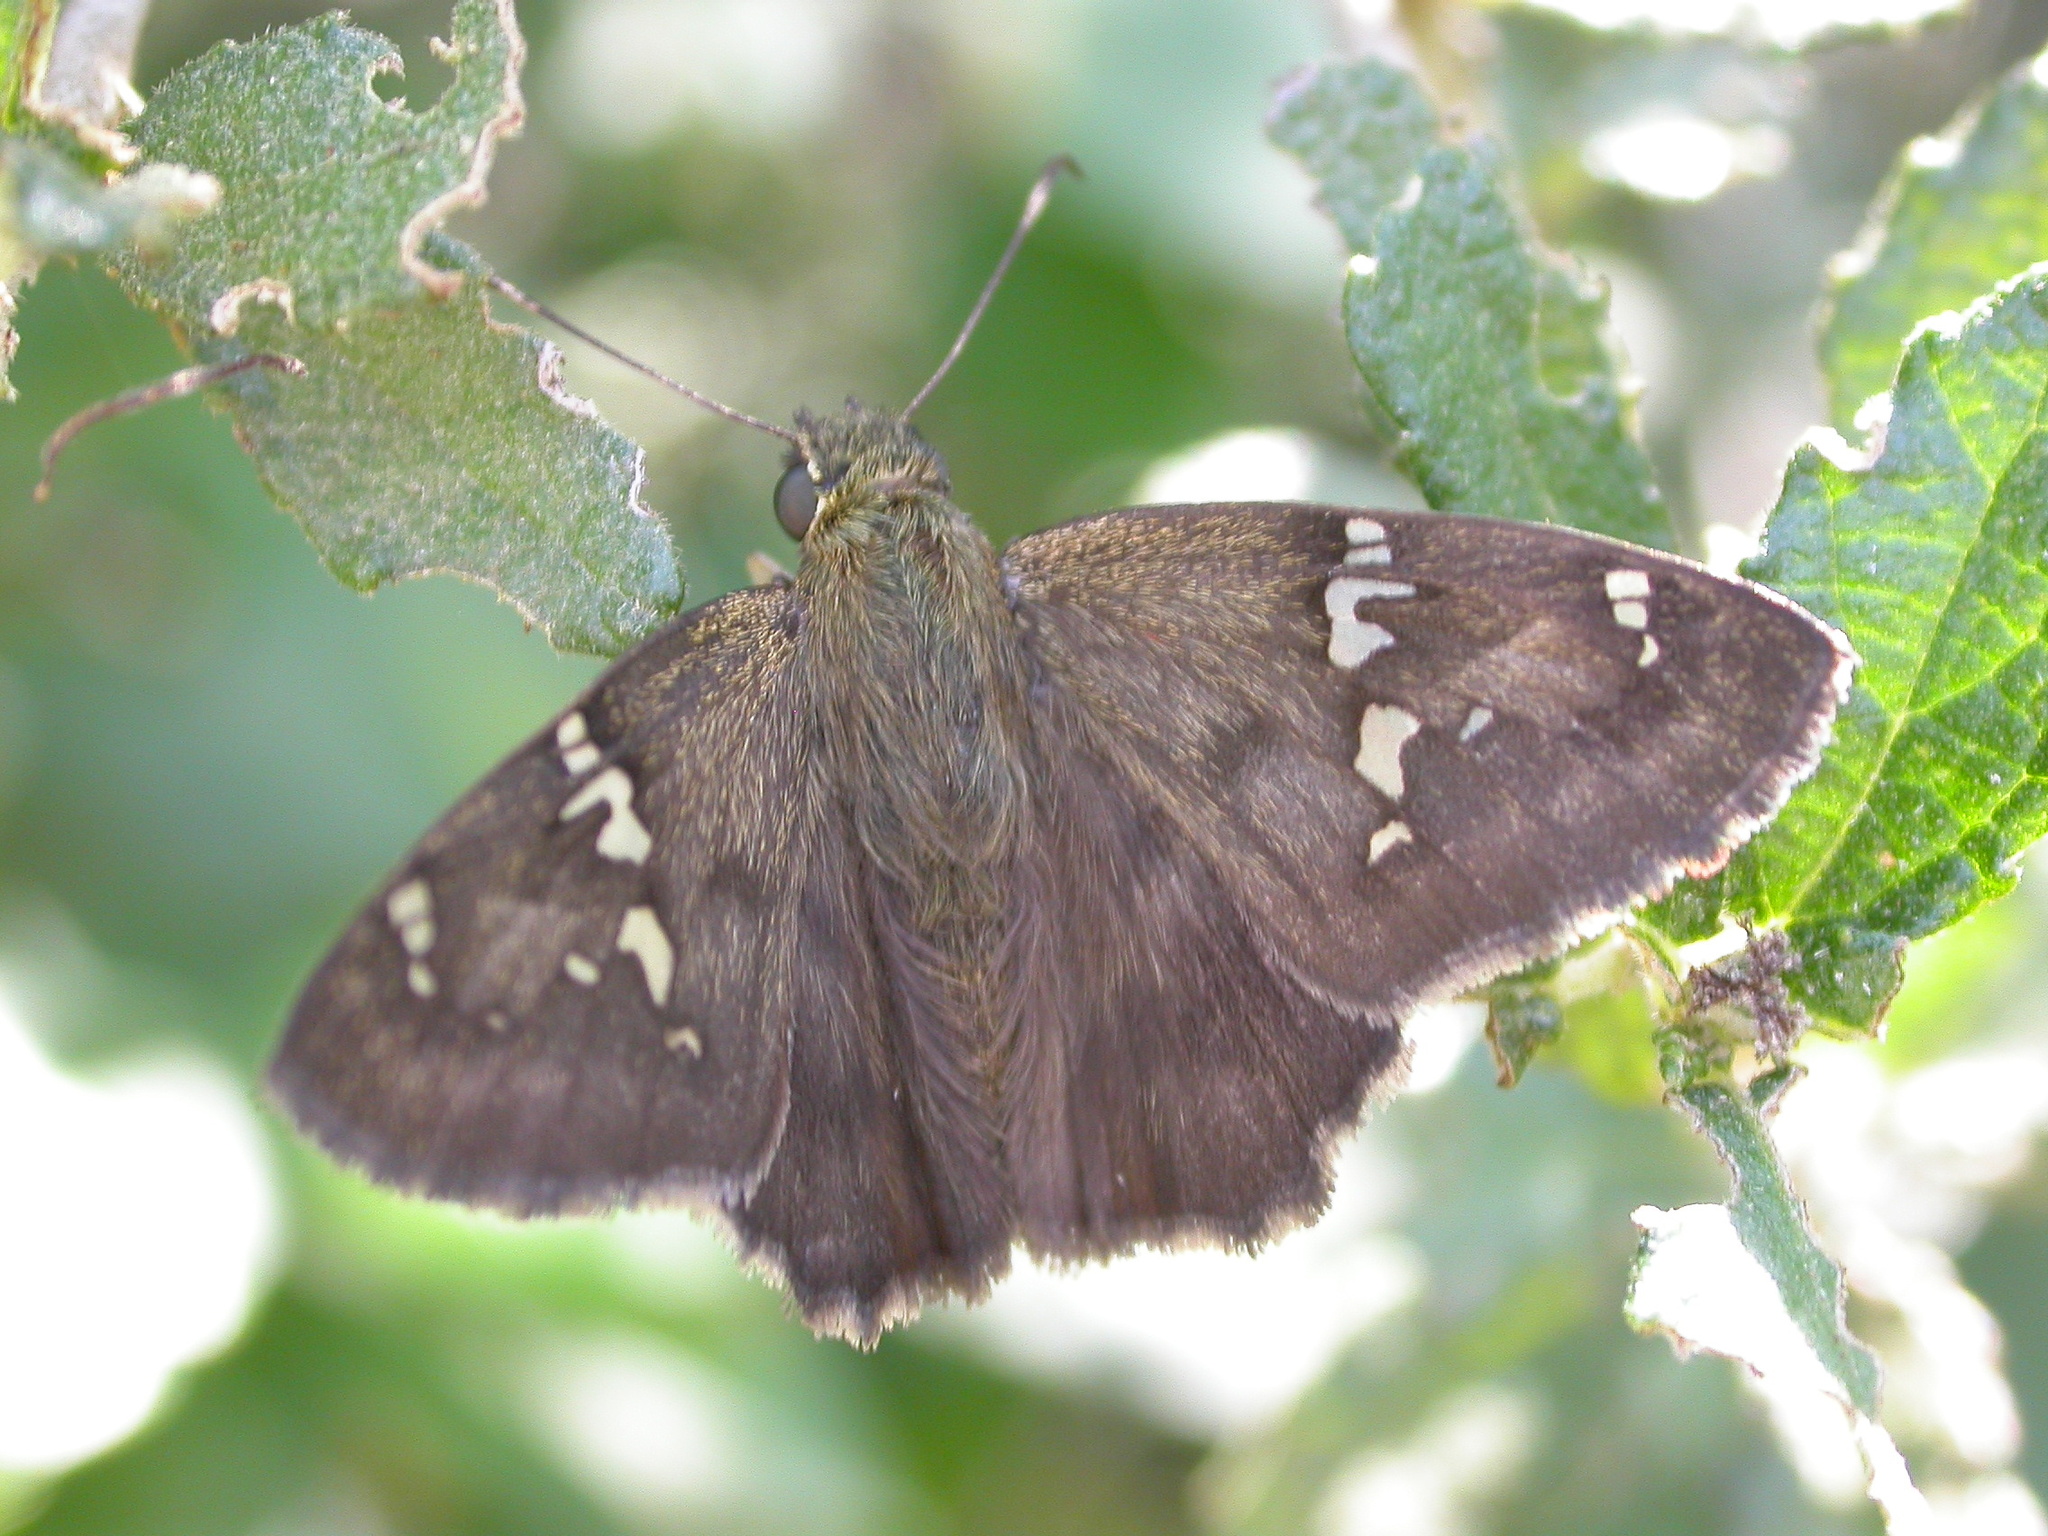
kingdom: Animalia
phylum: Arthropoda
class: Insecta
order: Lepidoptera
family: Hesperiidae
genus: Autochton
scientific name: Autochton potrillo
